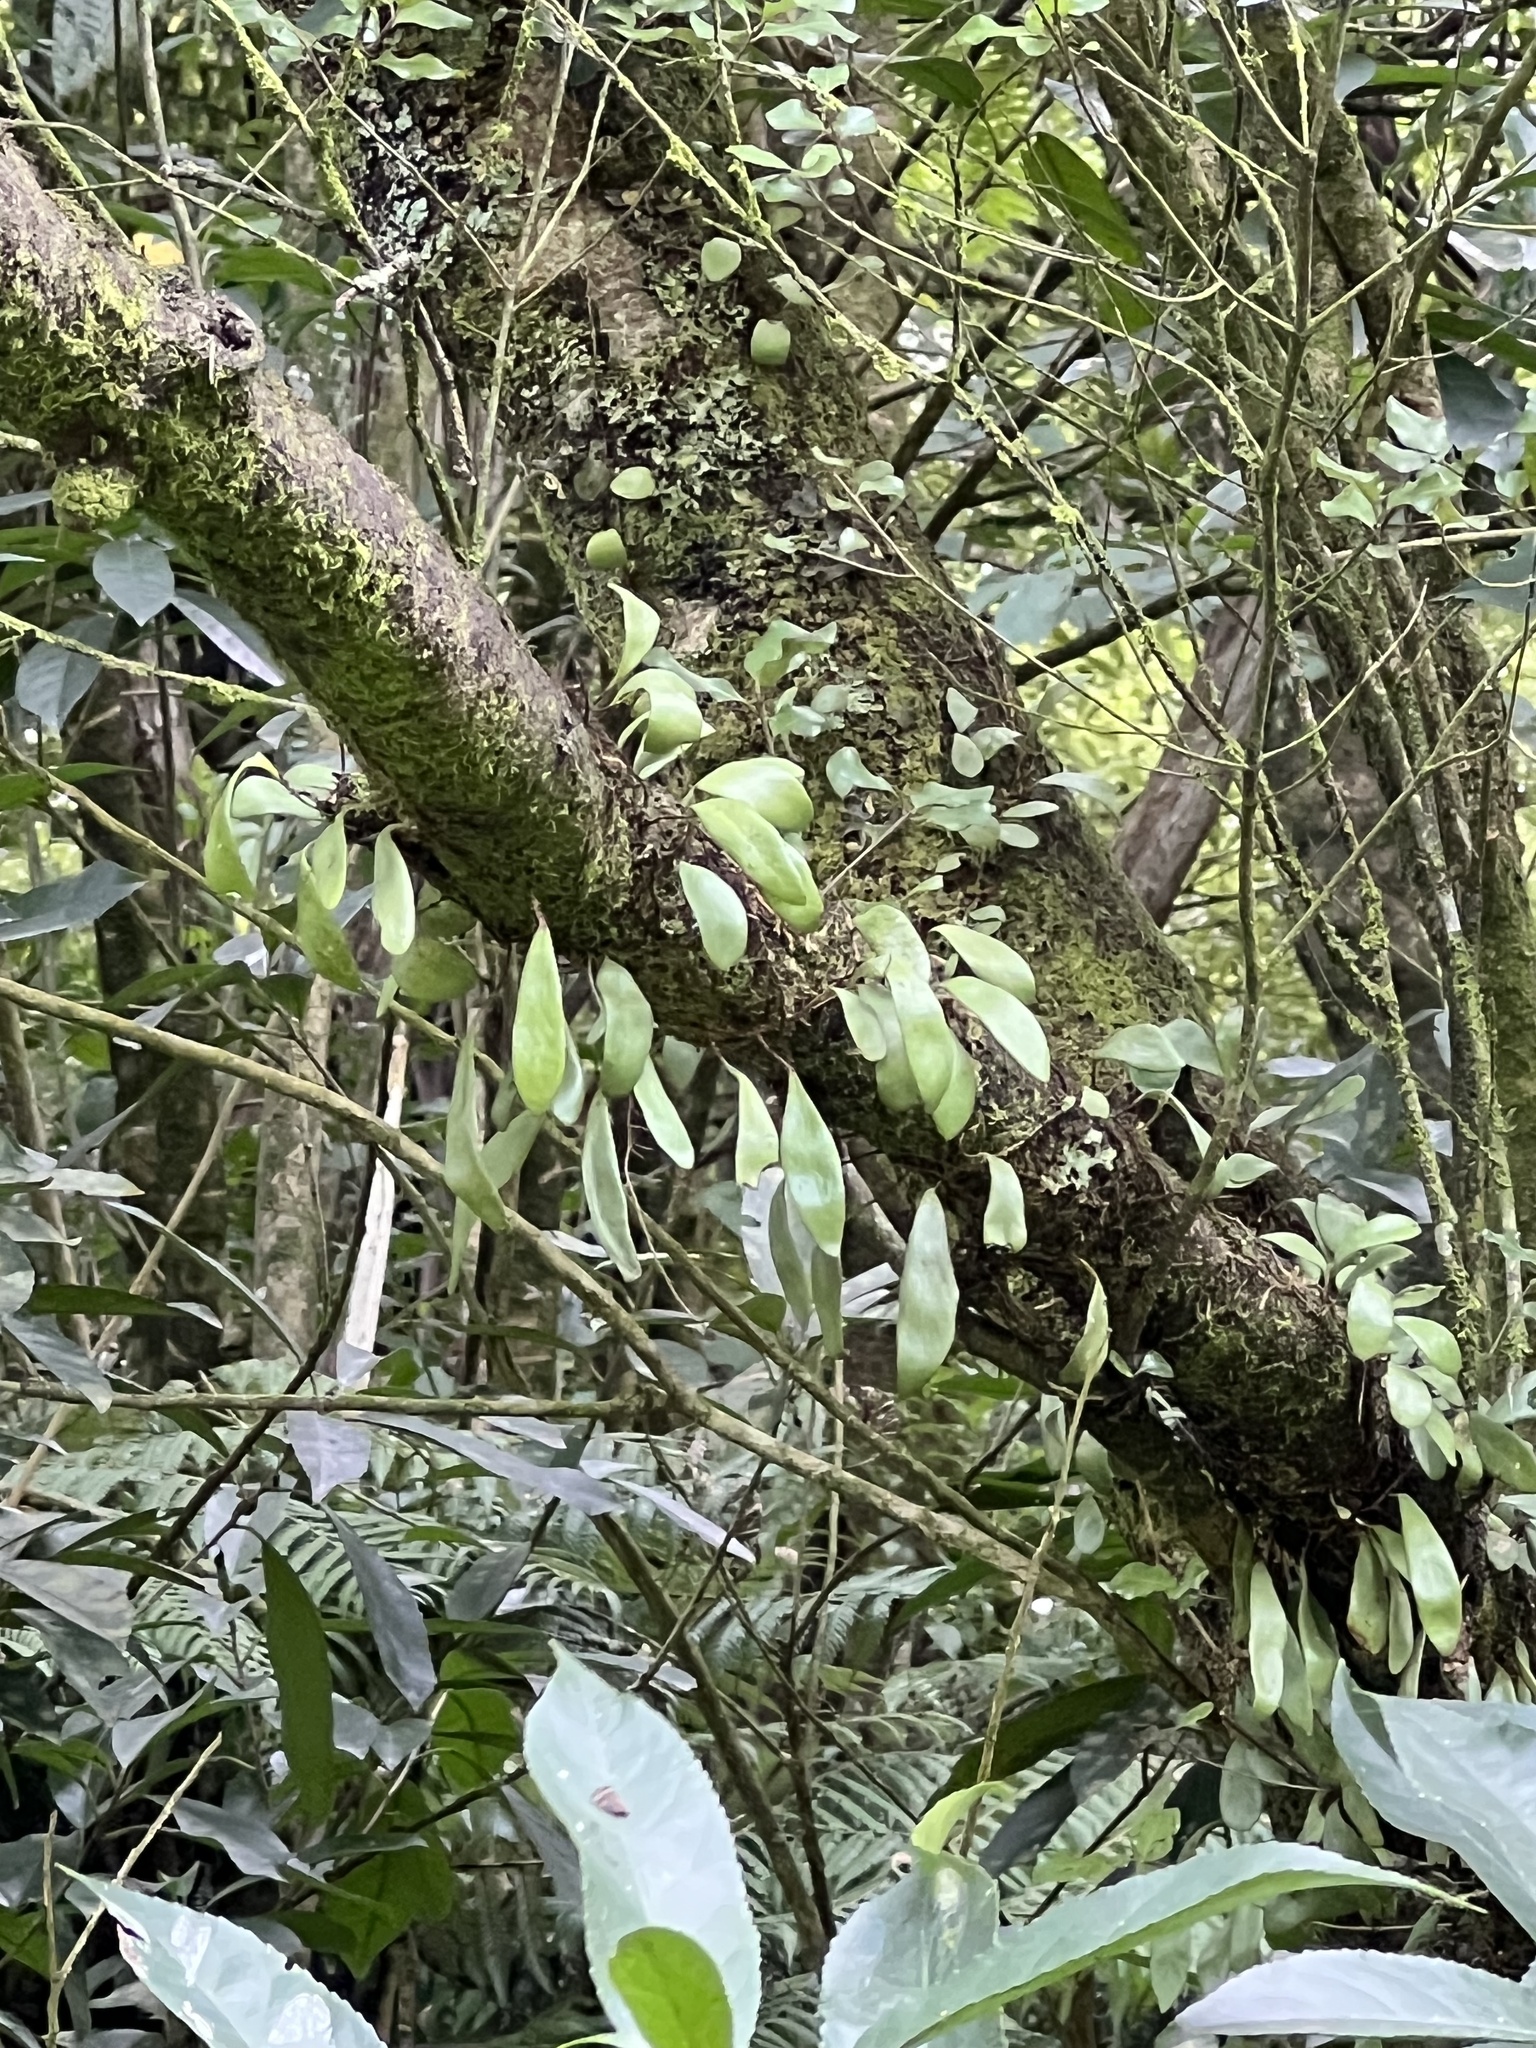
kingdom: Plantae
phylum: Tracheophyta
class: Polypodiopsida
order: Polypodiales
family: Polypodiaceae
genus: Pyrrosia
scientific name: Pyrrosia eleagnifolia
